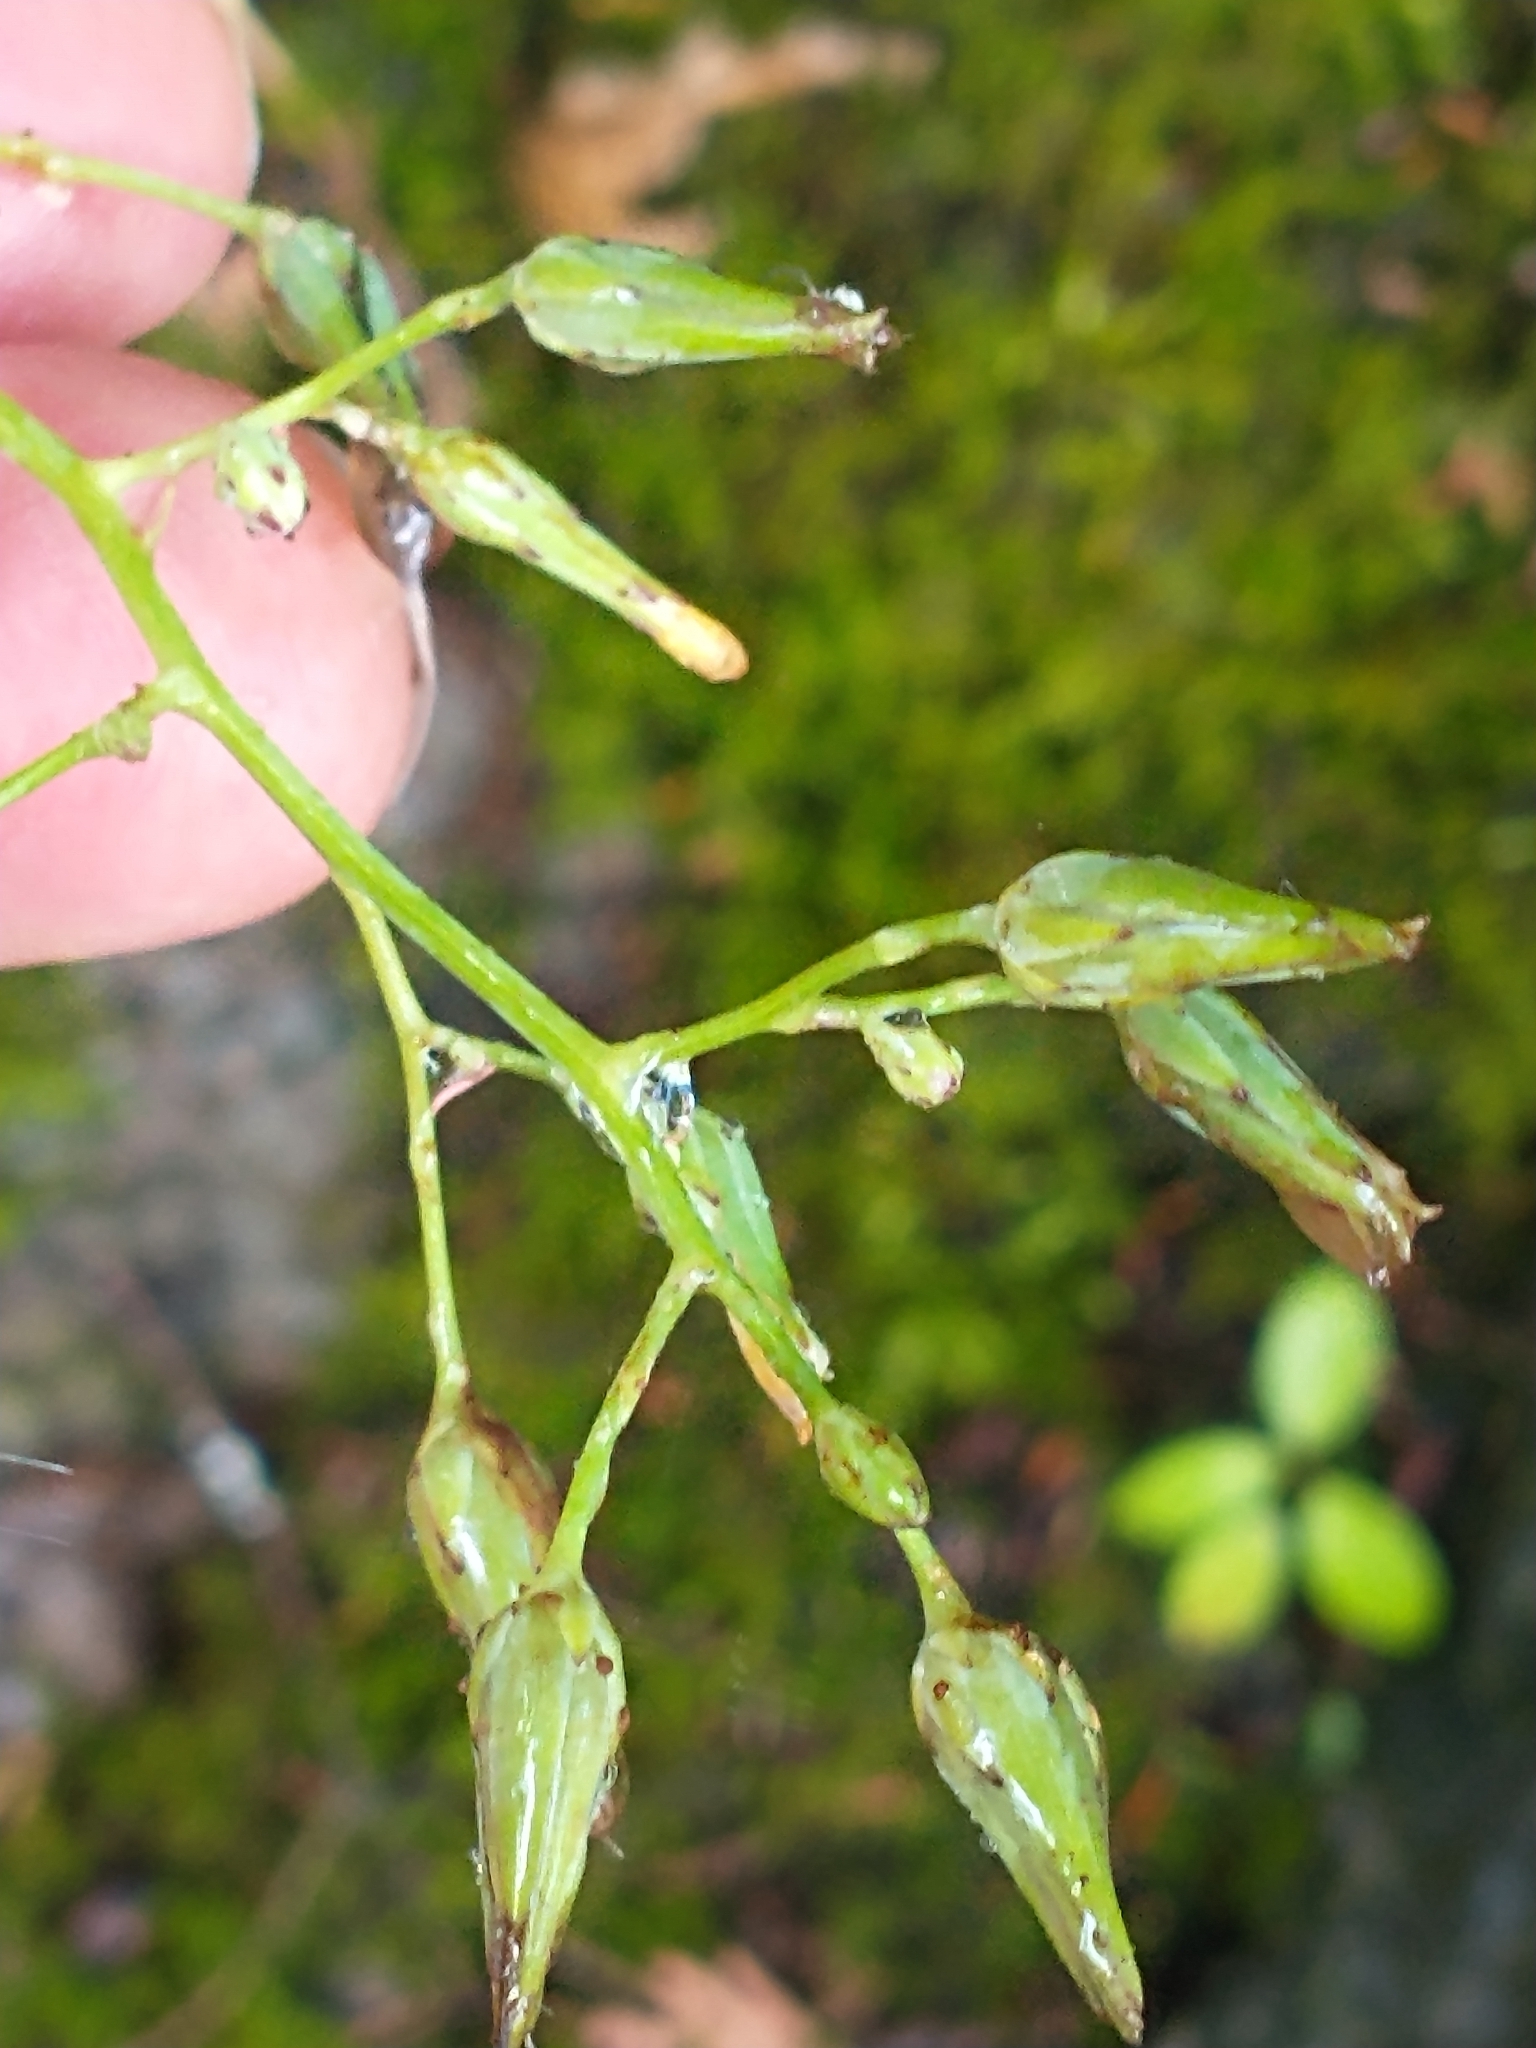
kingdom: Plantae
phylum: Tracheophyta
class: Magnoliopsida
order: Asterales
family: Asteraceae
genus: Lactuca
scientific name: Lactuca canadensis
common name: Canada lettuce
